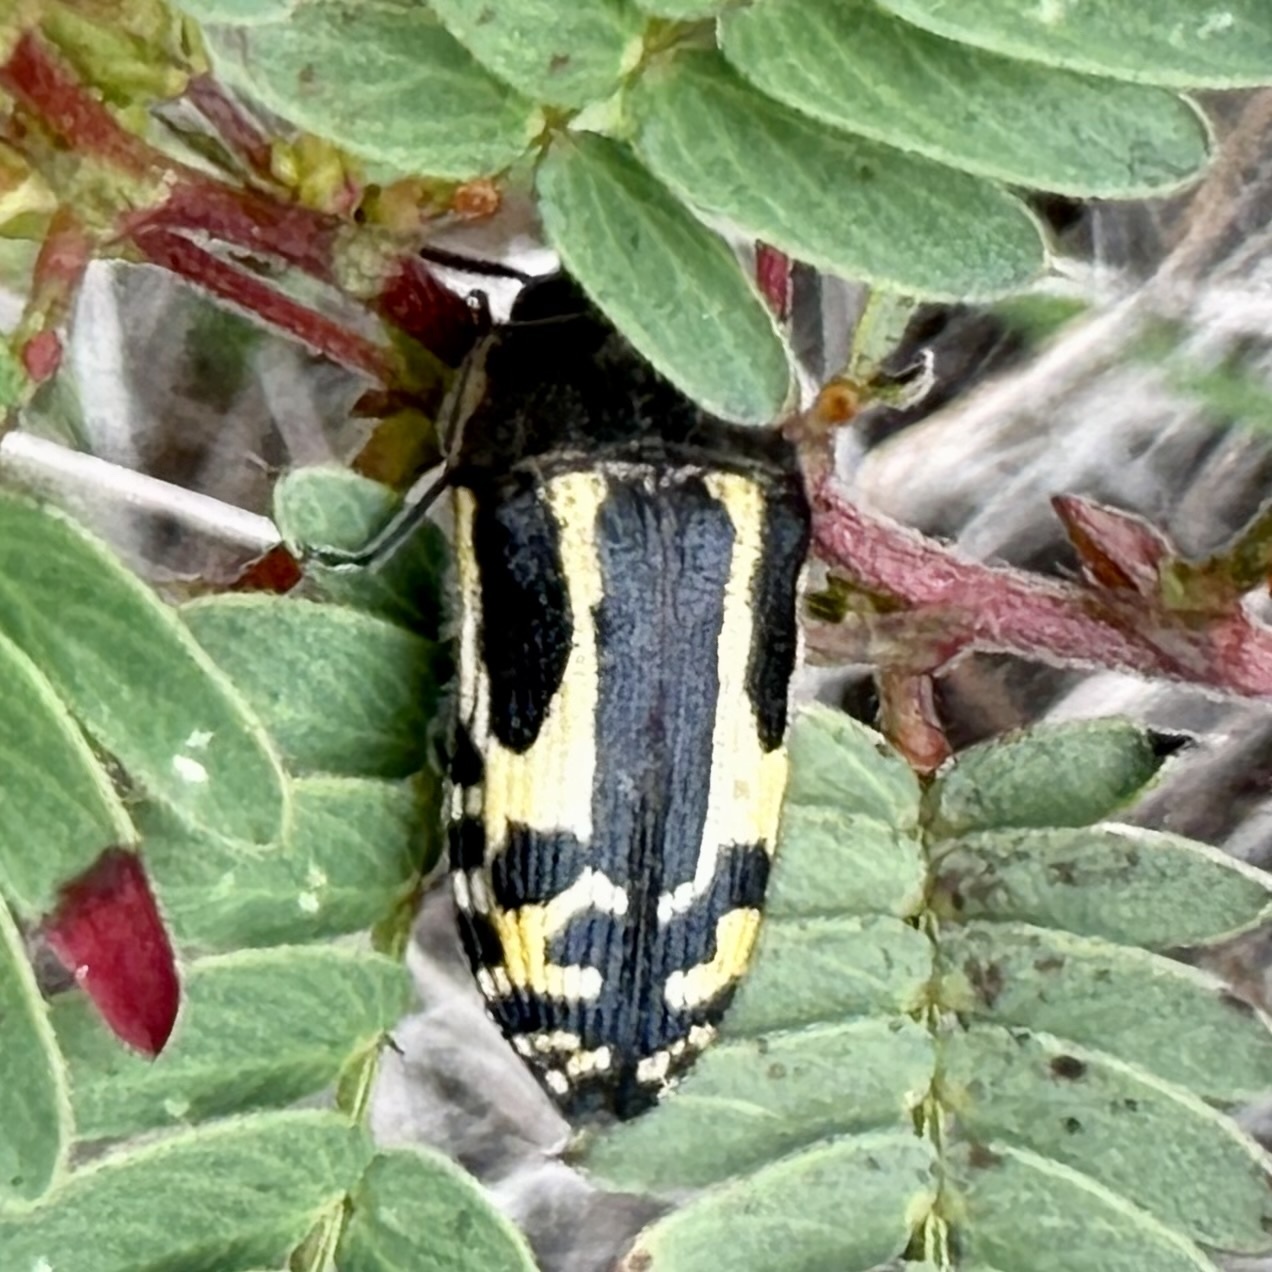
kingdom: Animalia
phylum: Arthropoda
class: Insecta
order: Coleoptera
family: Buprestidae
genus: Acmaeodera
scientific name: Acmaeodera scalaris
